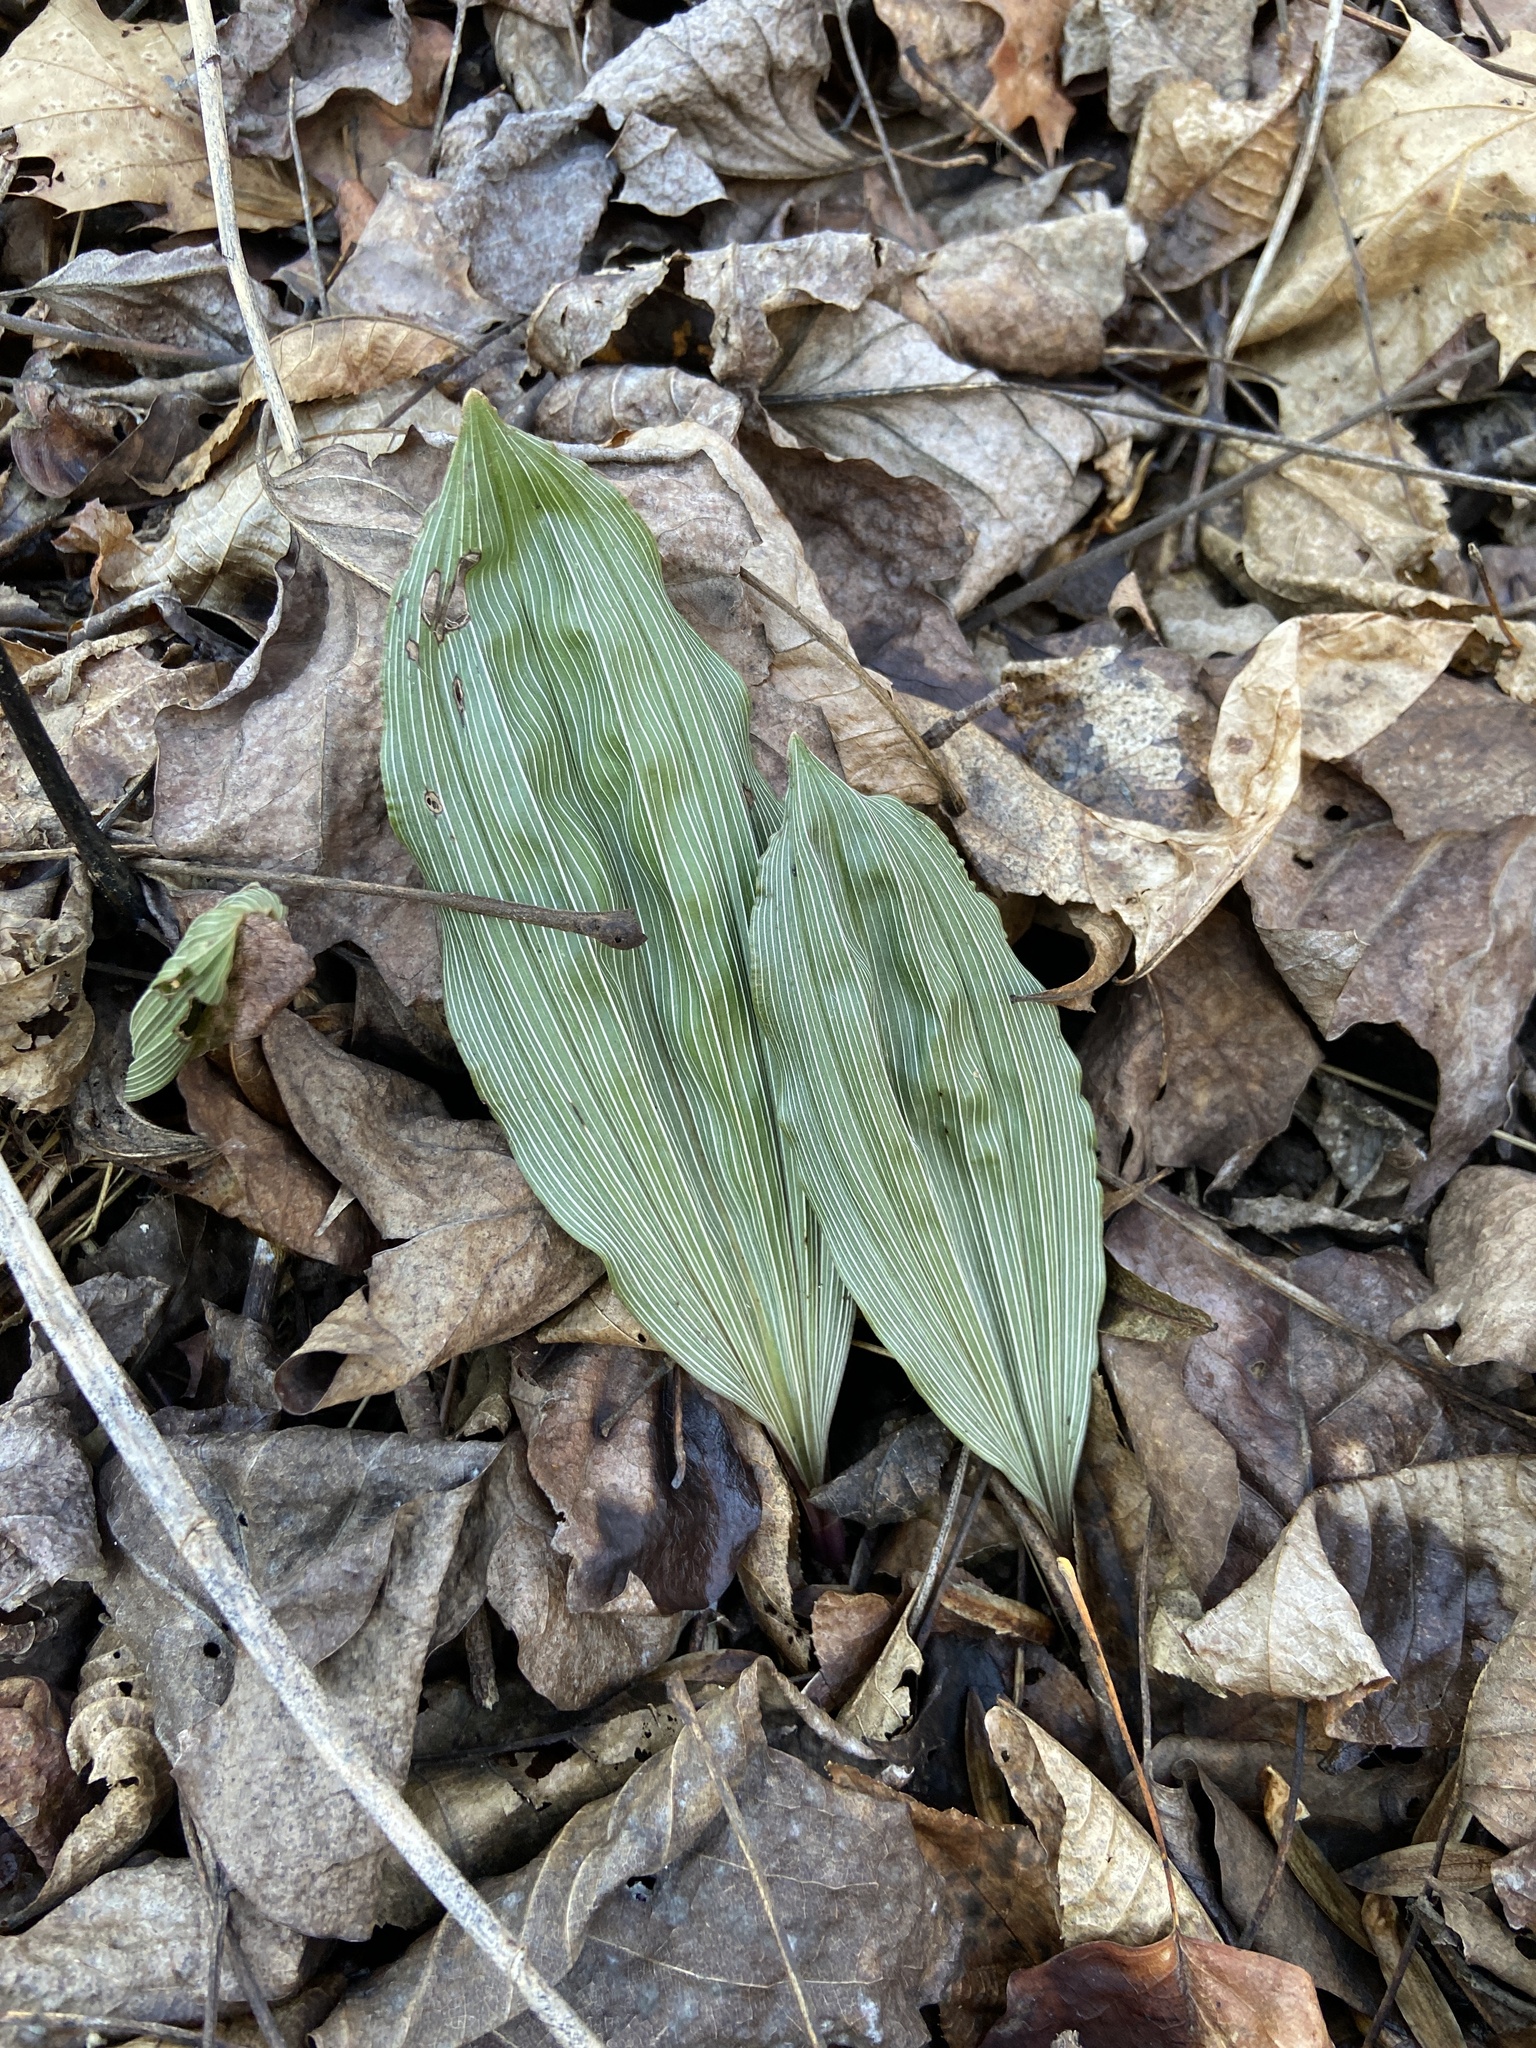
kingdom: Plantae
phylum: Tracheophyta
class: Liliopsida
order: Asparagales
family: Orchidaceae
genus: Aplectrum
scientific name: Aplectrum hyemale
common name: Adam-and-eve
